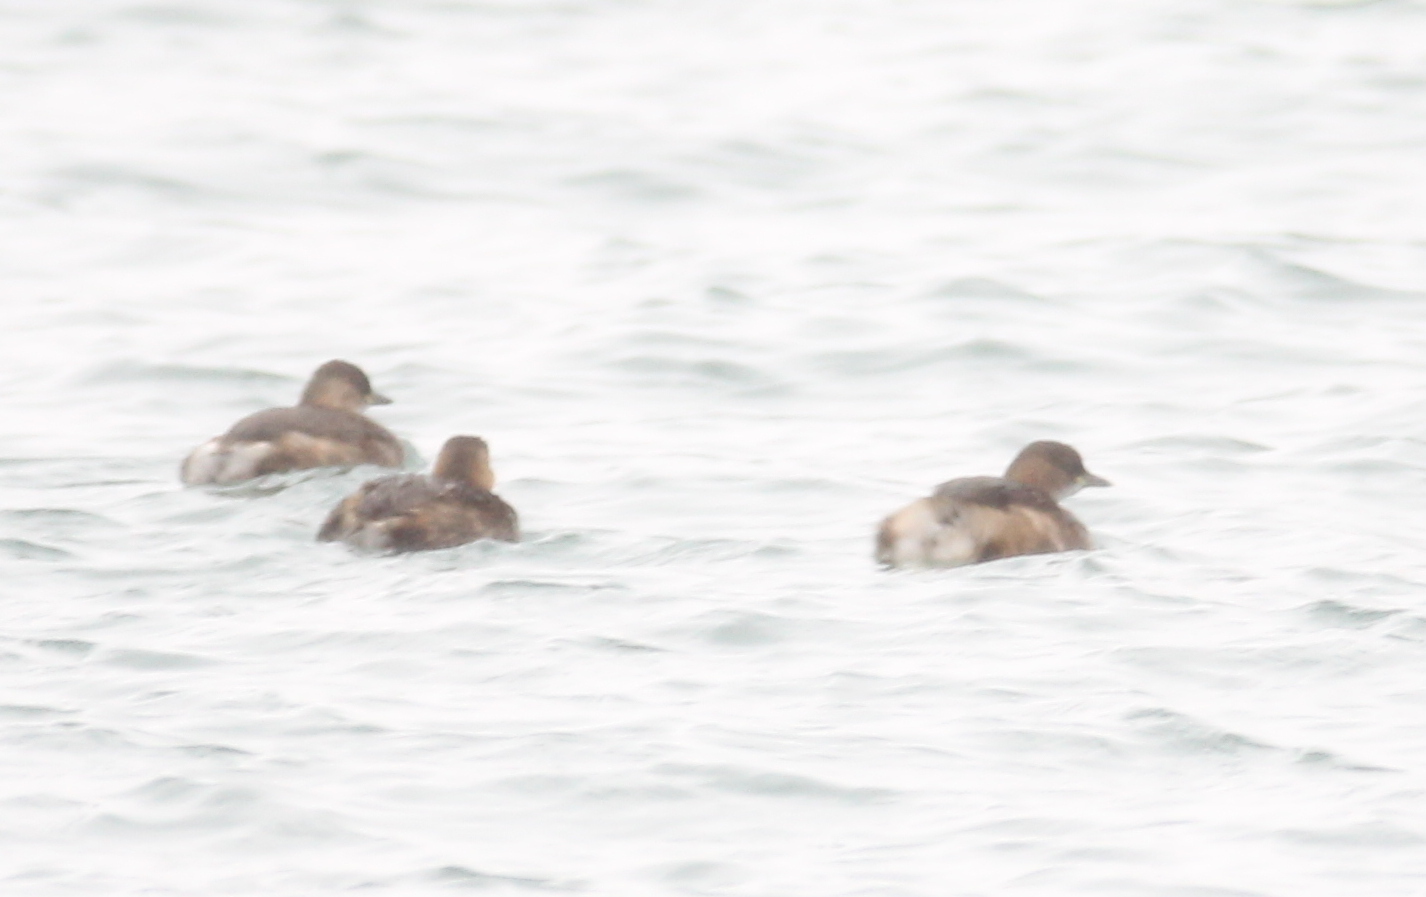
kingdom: Animalia
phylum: Chordata
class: Aves
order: Podicipediformes
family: Podicipedidae
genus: Tachybaptus
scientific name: Tachybaptus ruficollis
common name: Little grebe
